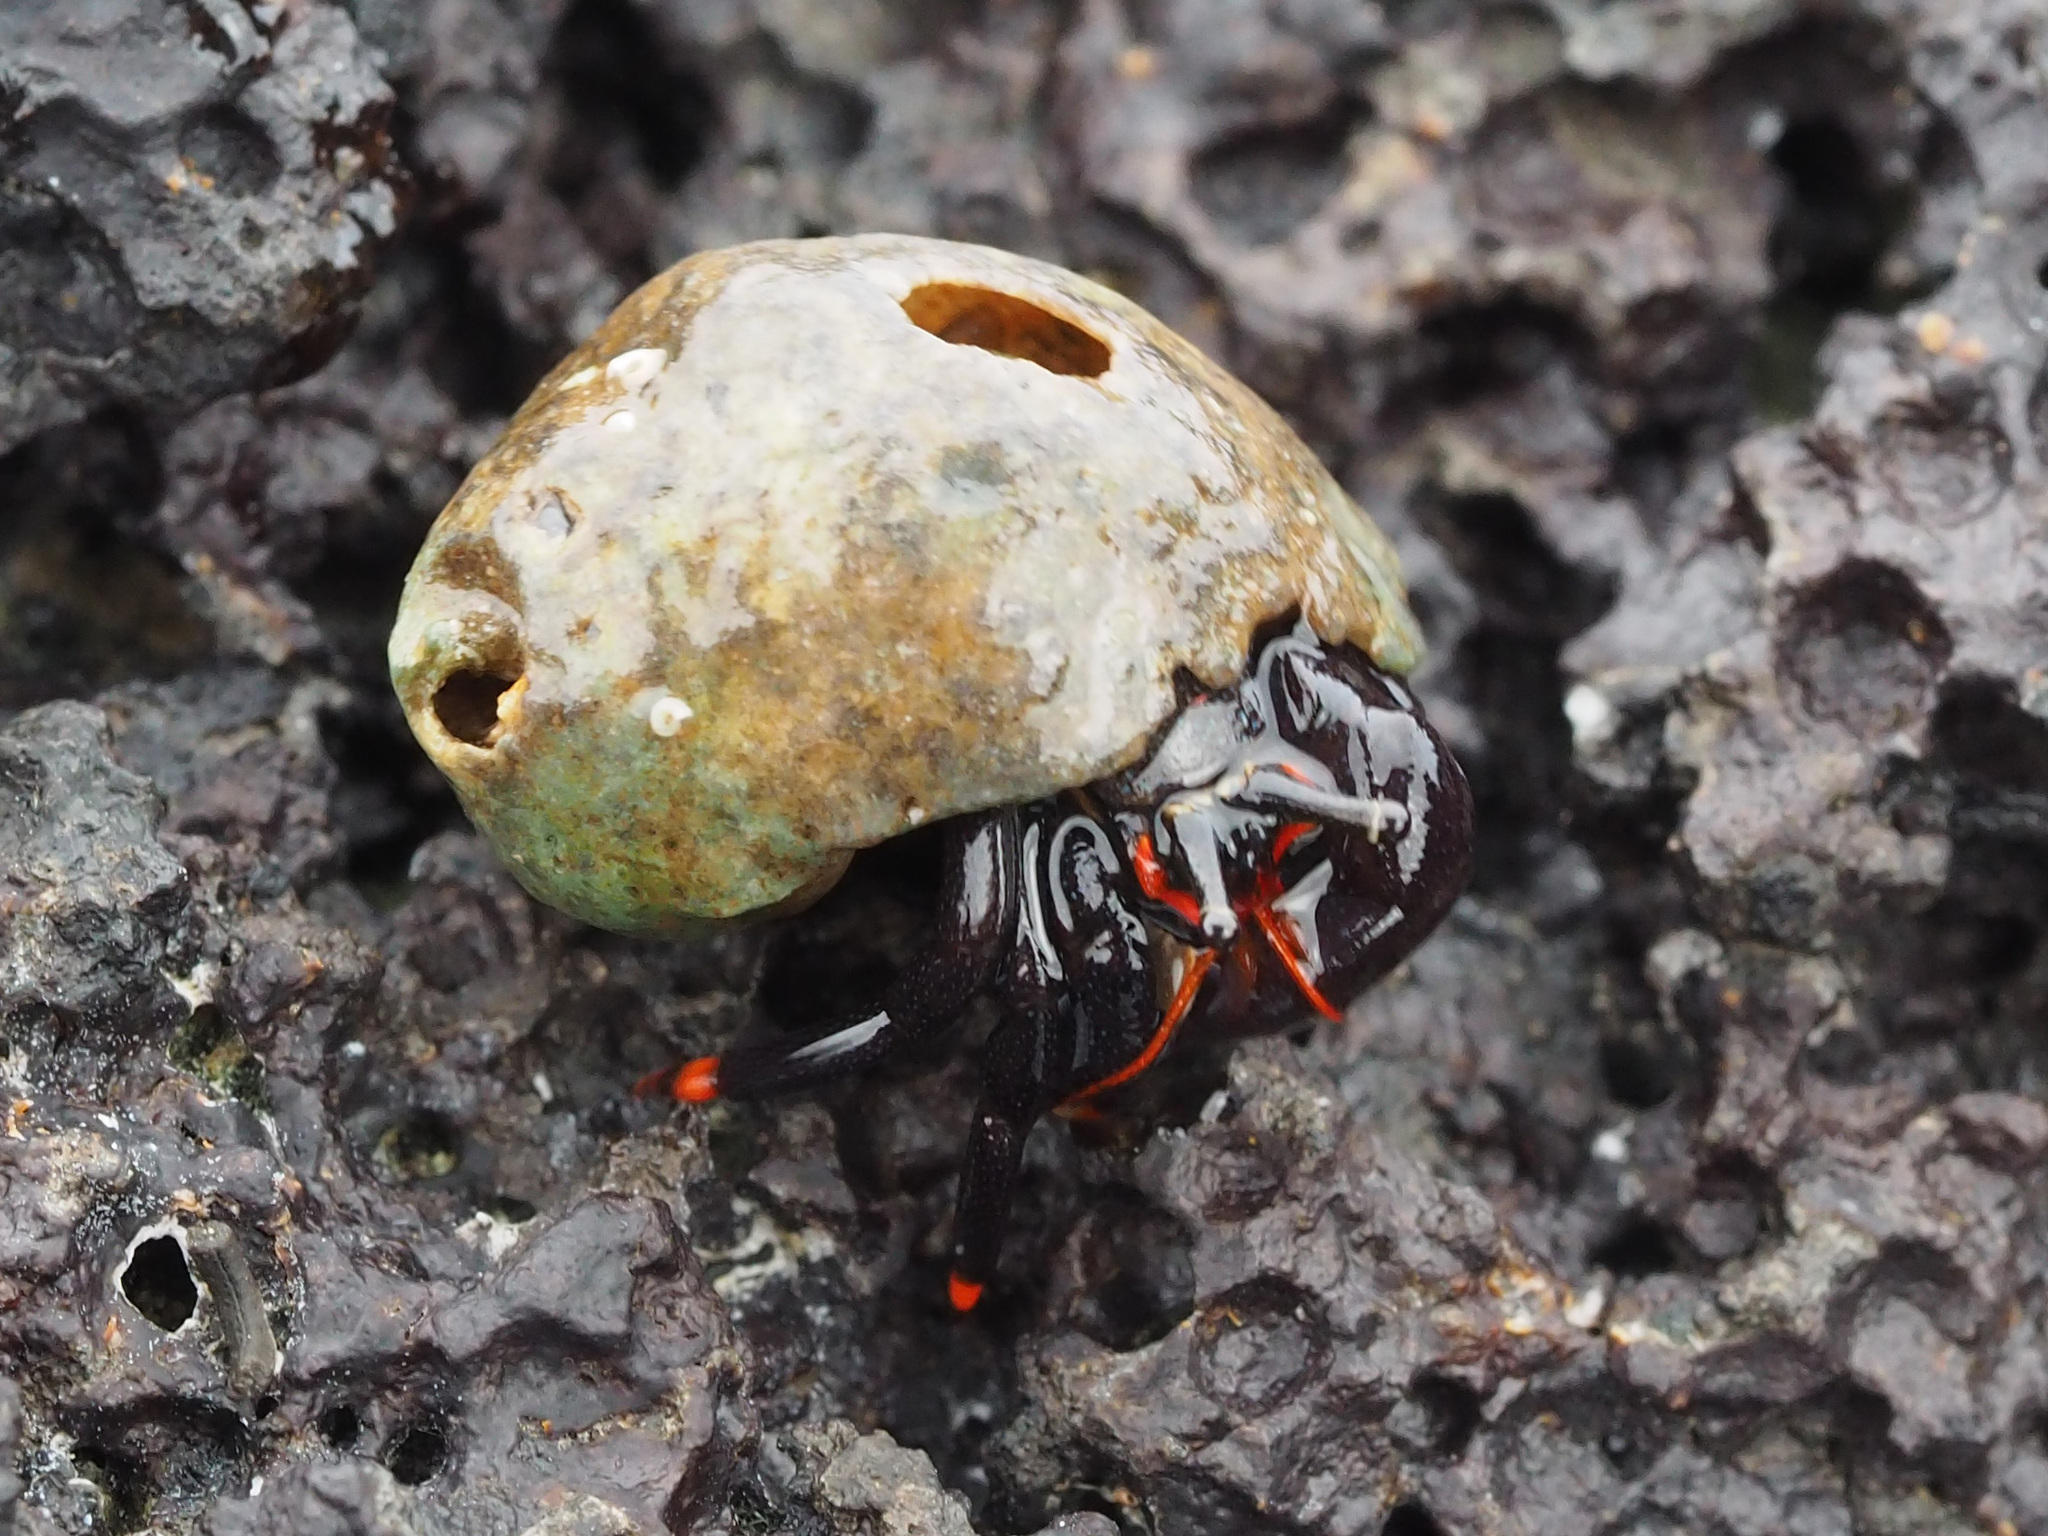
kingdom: Animalia
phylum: Arthropoda
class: Malacostraca
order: Decapoda
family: Diogenidae
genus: Calcinus
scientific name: Calcinus explorator
